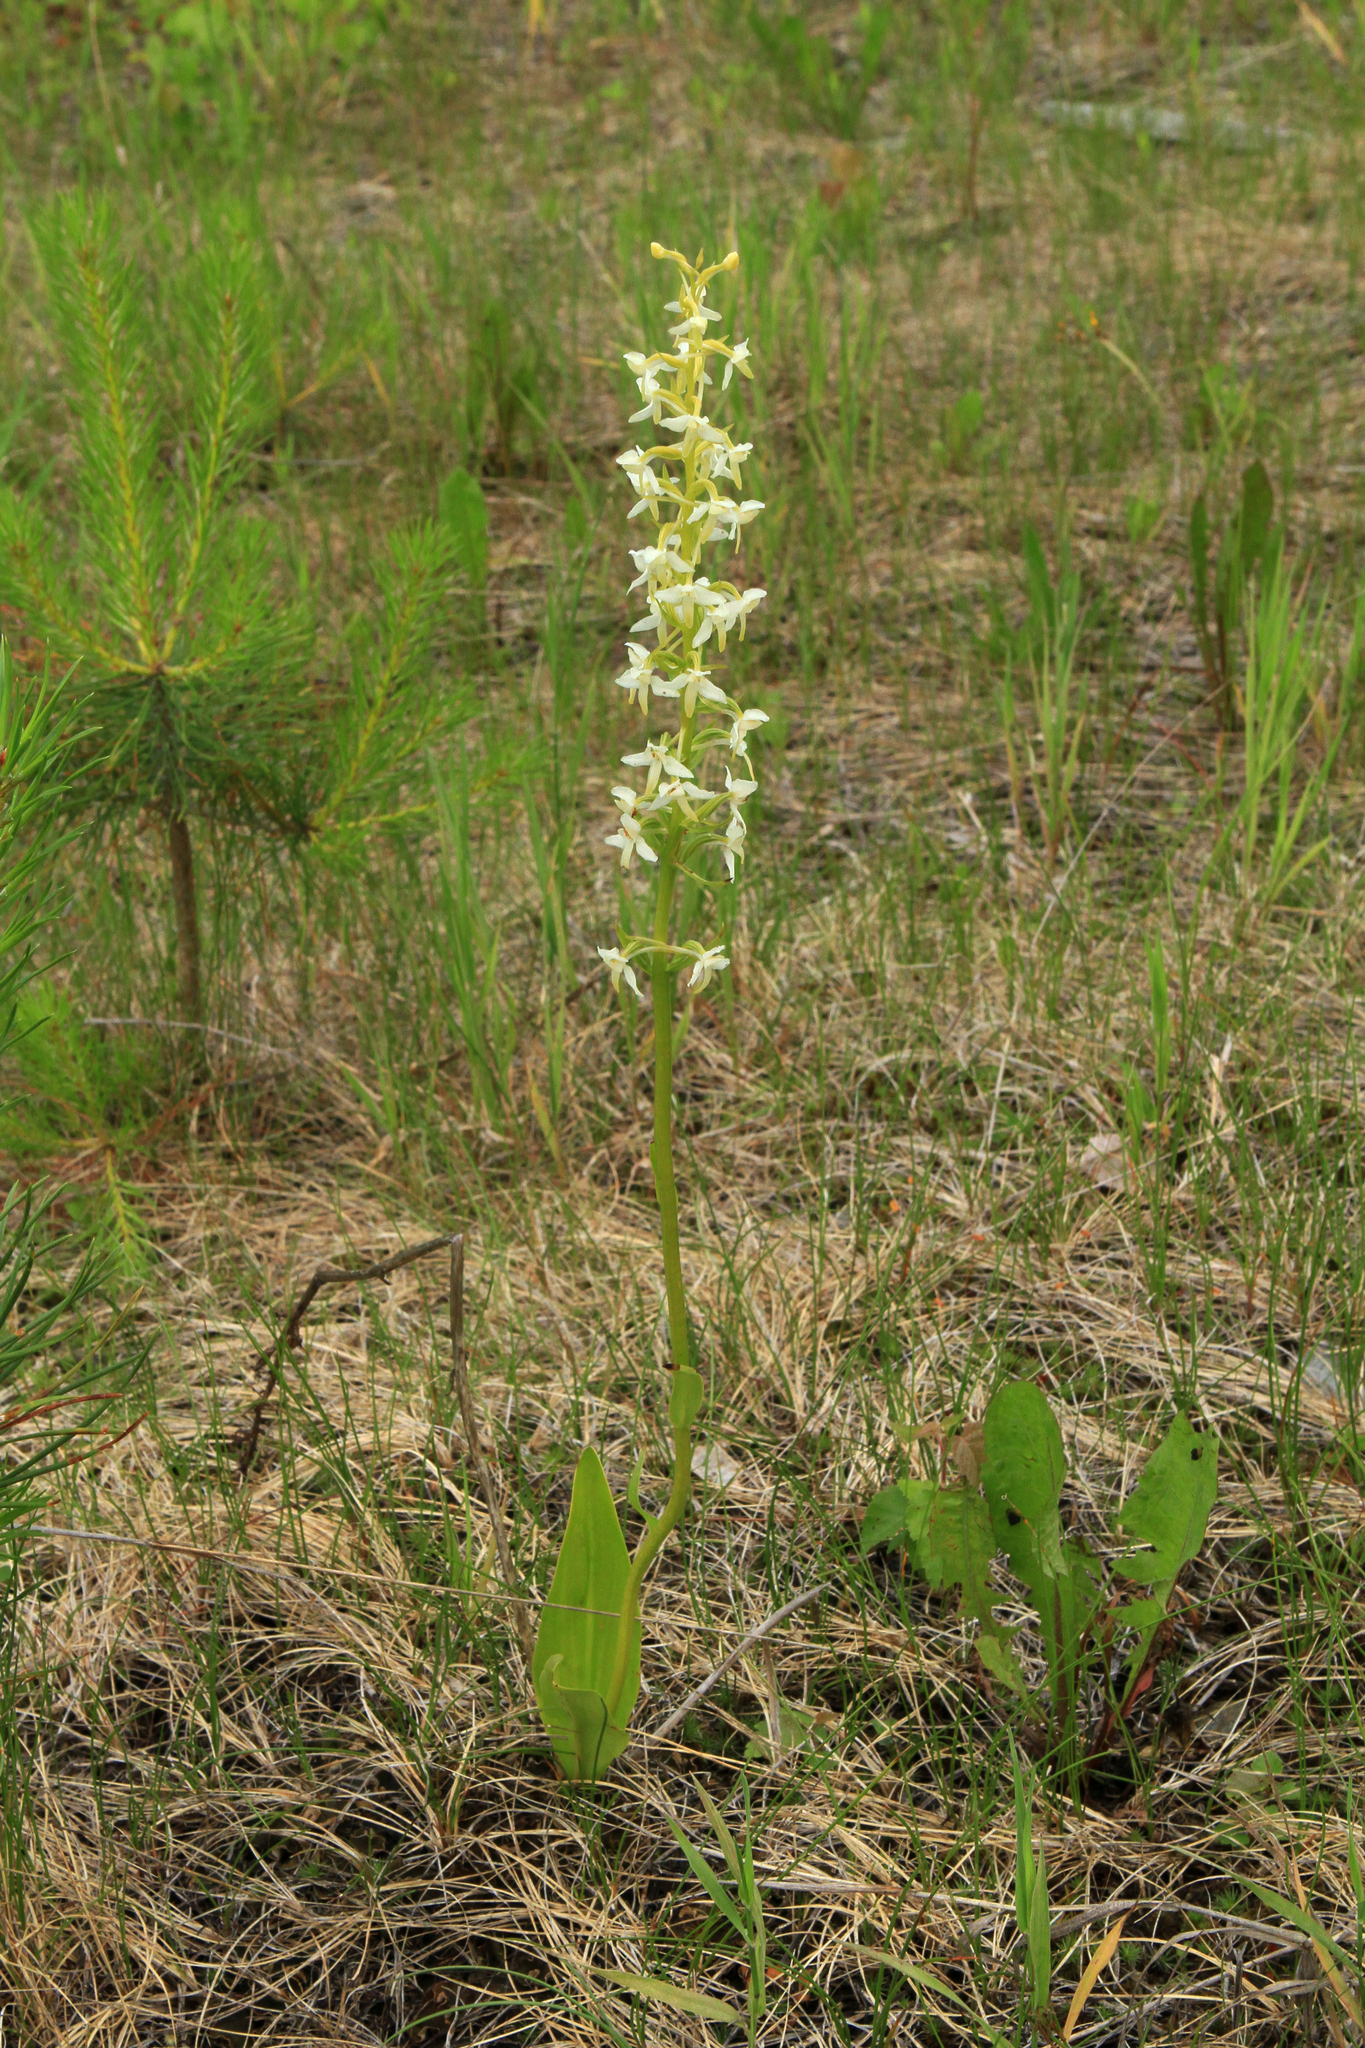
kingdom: Plantae
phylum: Tracheophyta
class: Liliopsida
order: Asparagales
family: Orchidaceae
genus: Platanthera
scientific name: Platanthera bifolia
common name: Lesser butterfly-orchid
